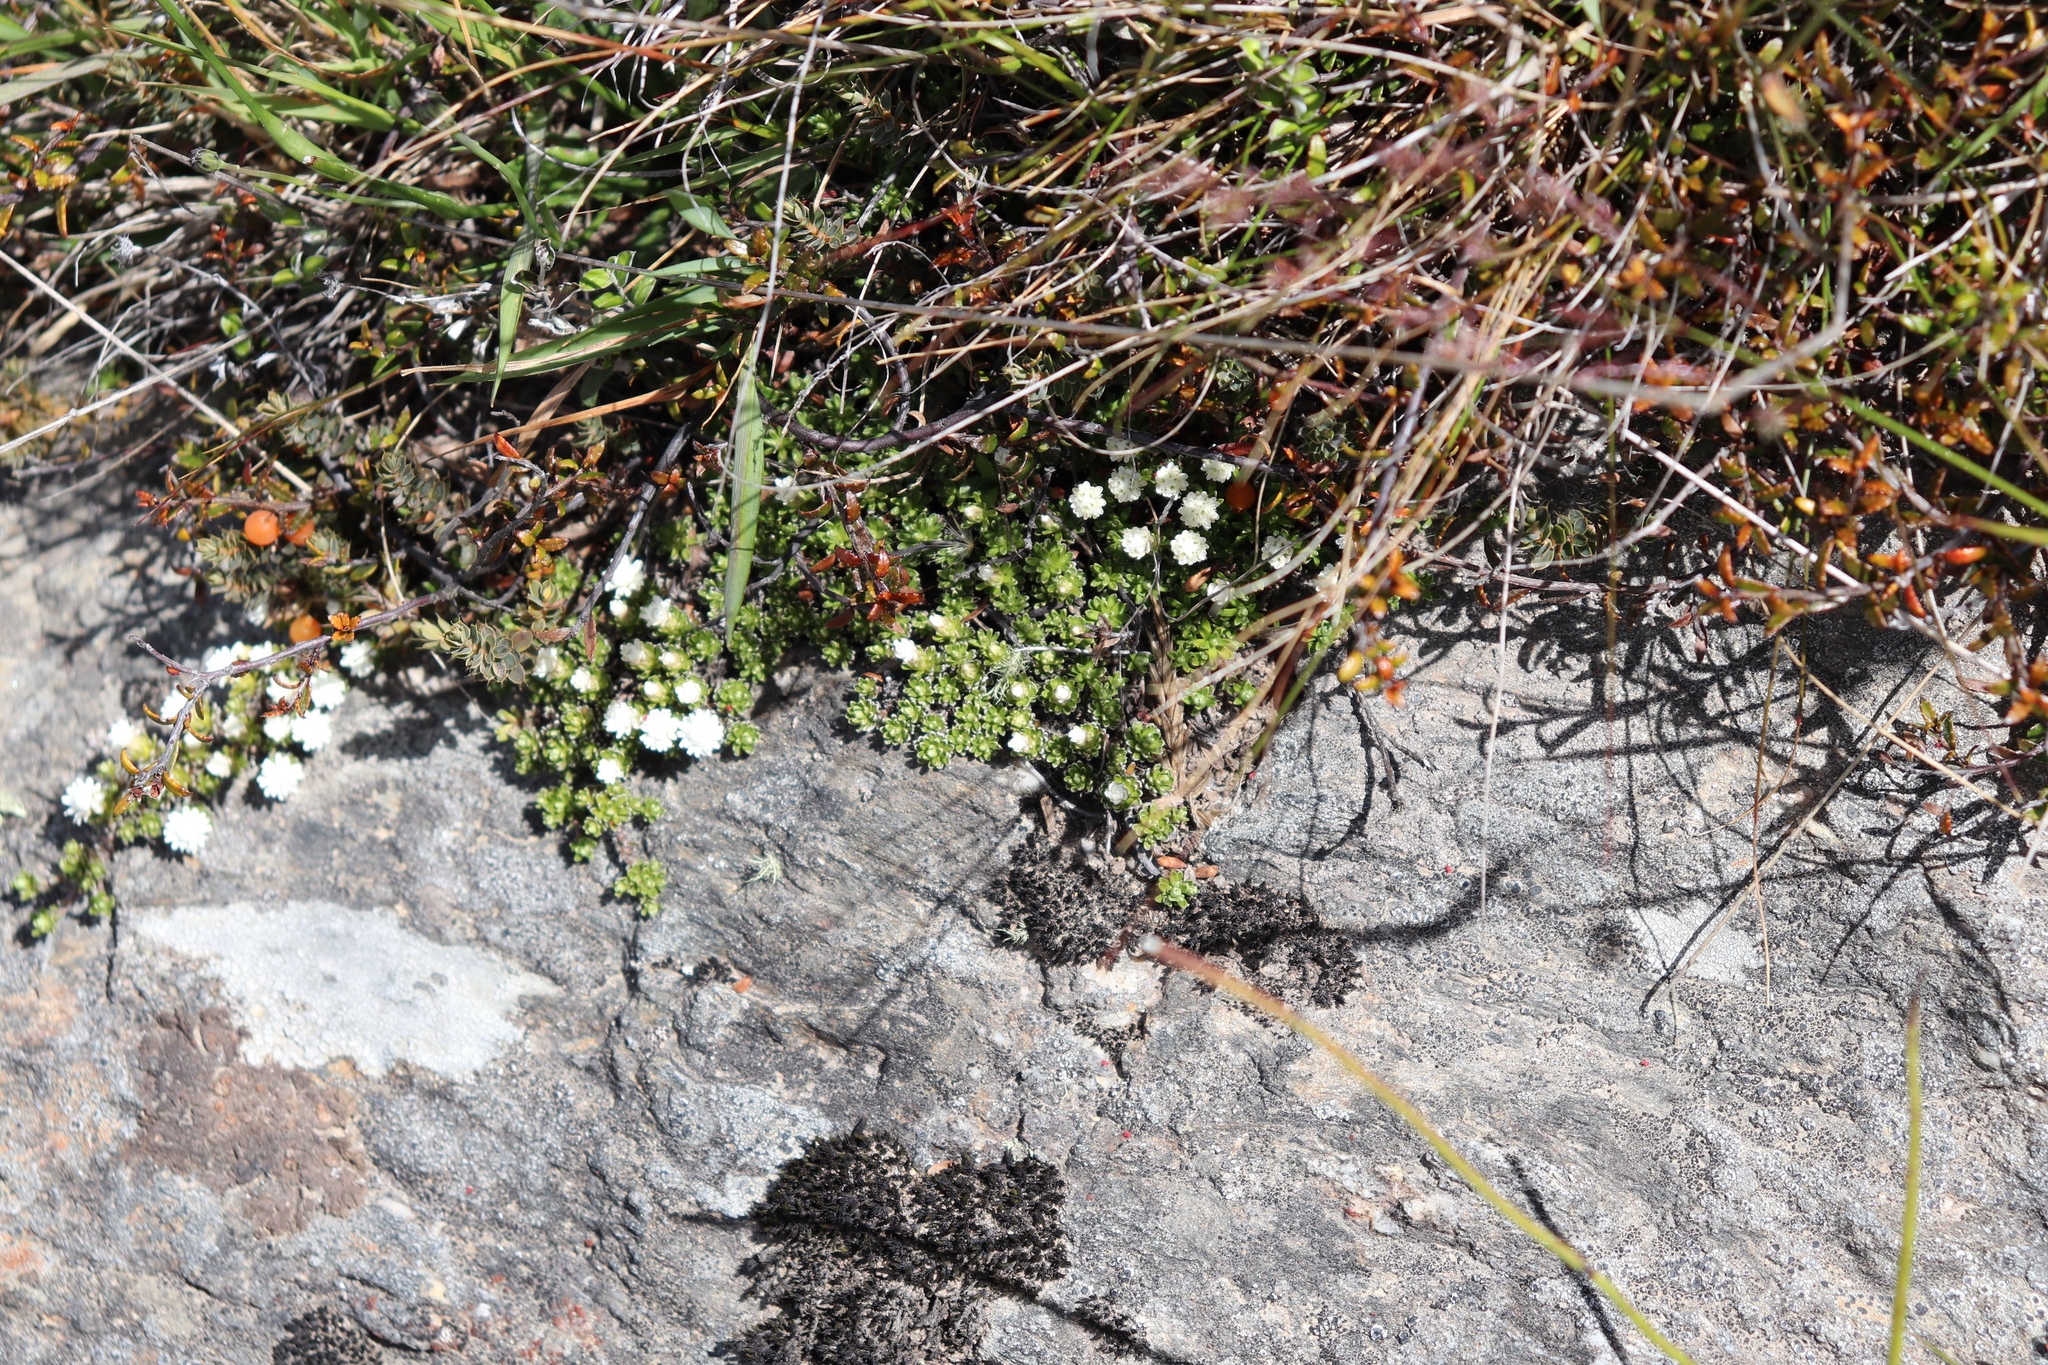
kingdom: Plantae
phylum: Tracheophyta
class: Magnoliopsida
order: Asterales
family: Asteraceae
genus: Raoulia
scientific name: Raoulia subsericea
